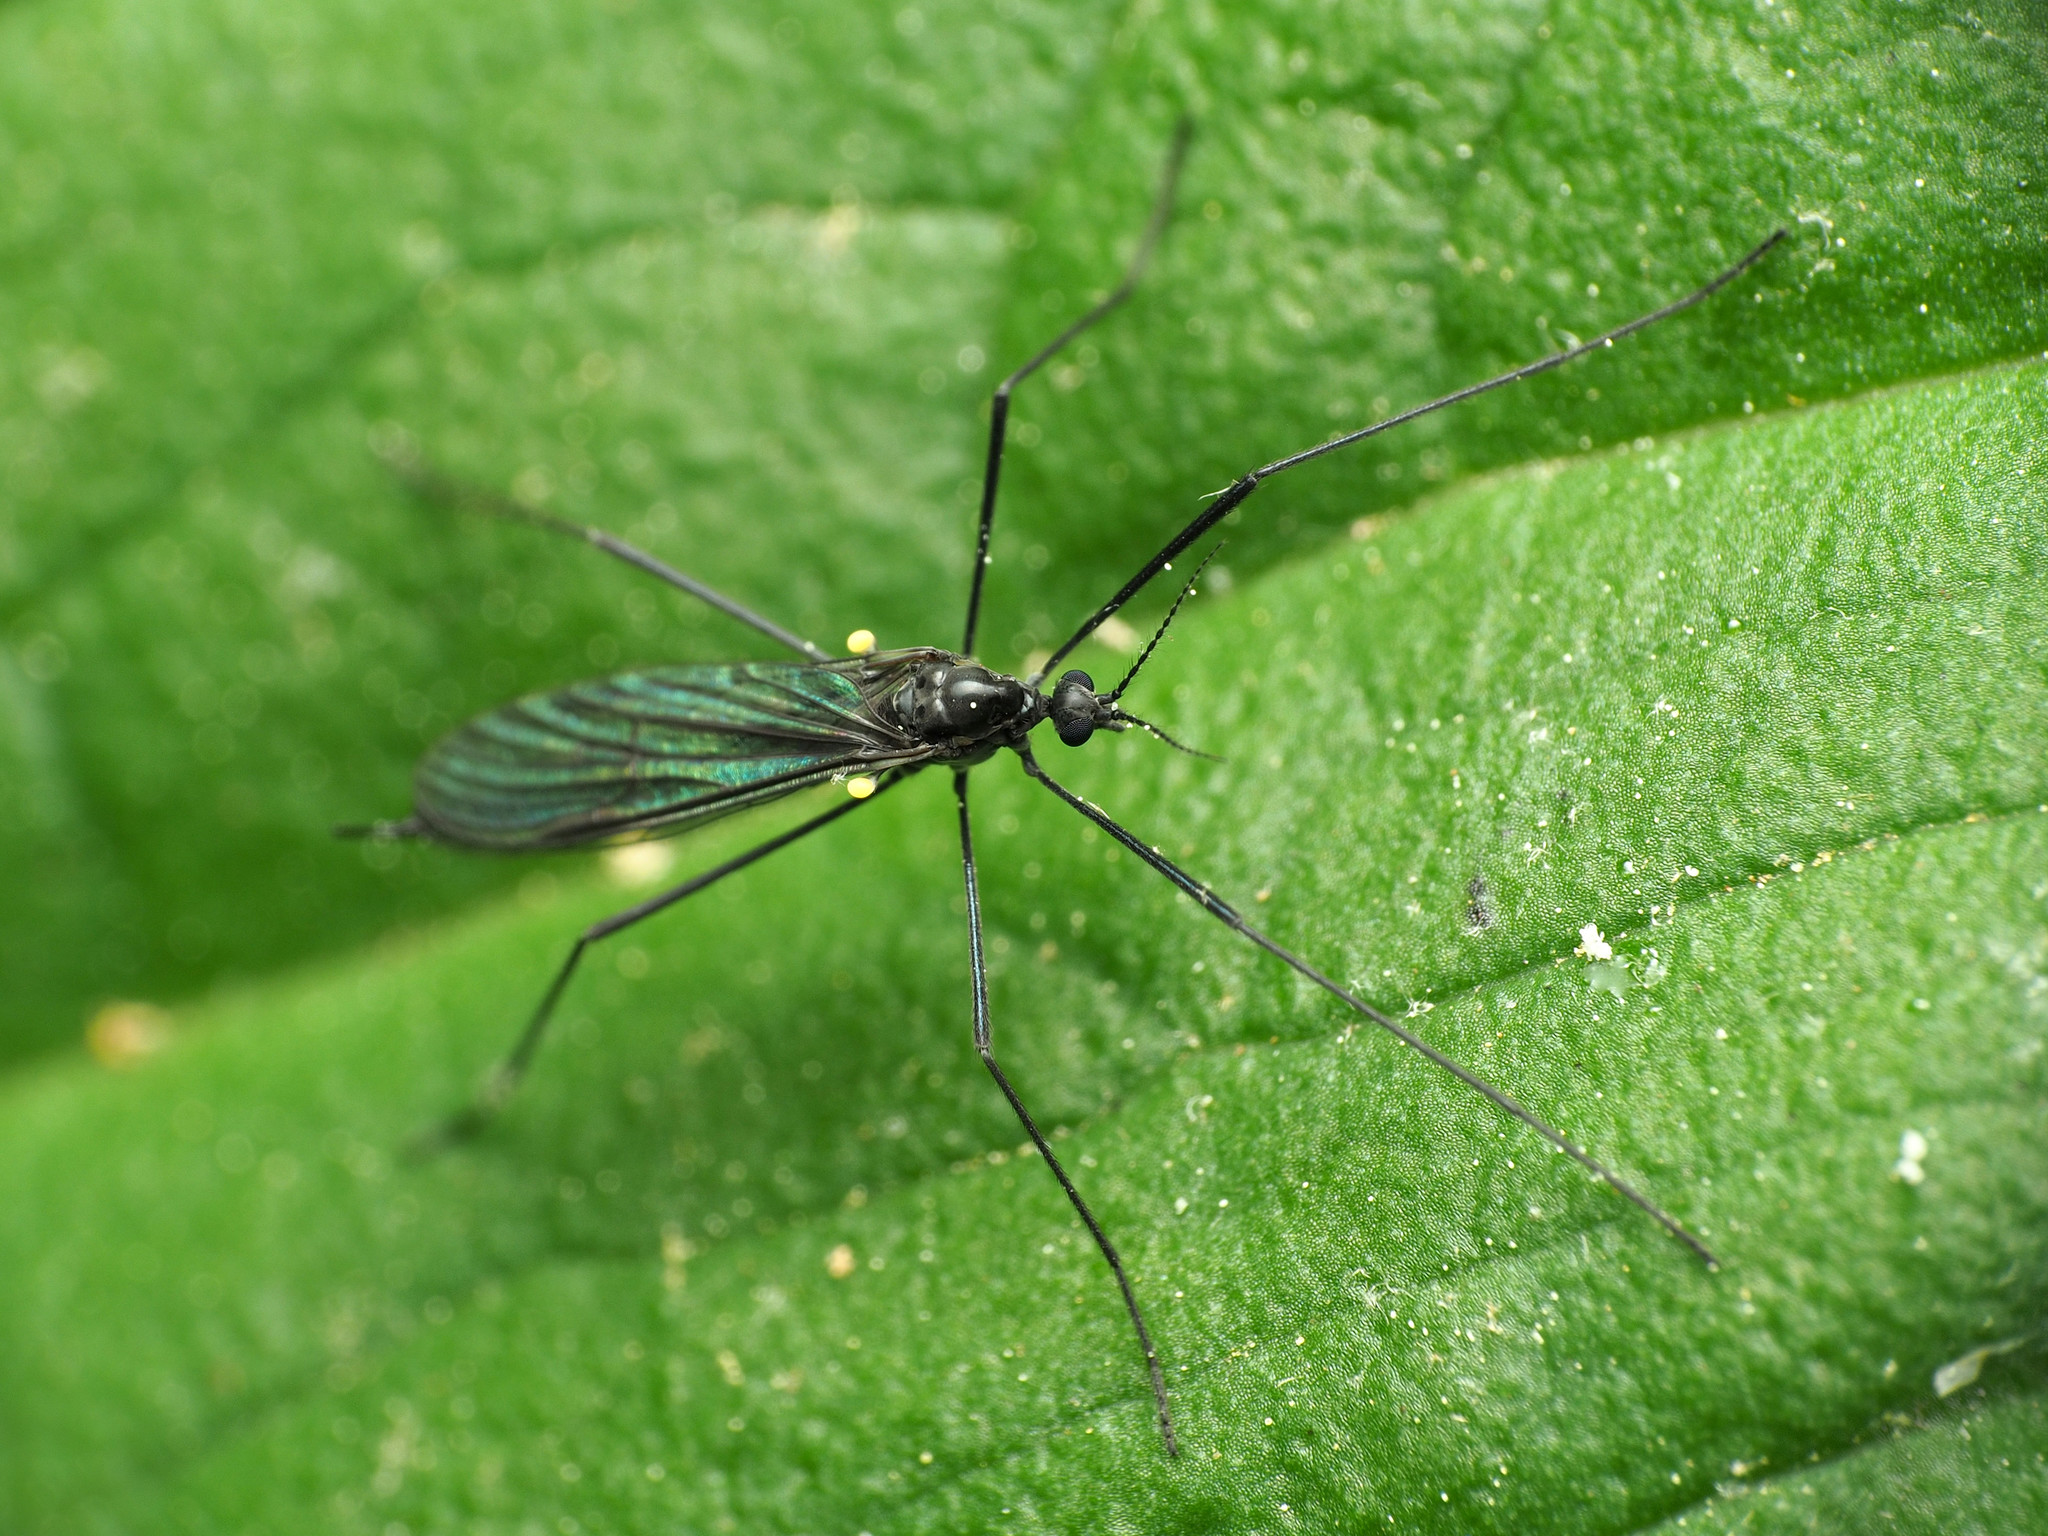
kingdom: Animalia
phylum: Arthropoda
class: Insecta
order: Diptera
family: Limoniidae
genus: Gnophomyia
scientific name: Gnophomyia tristissima
